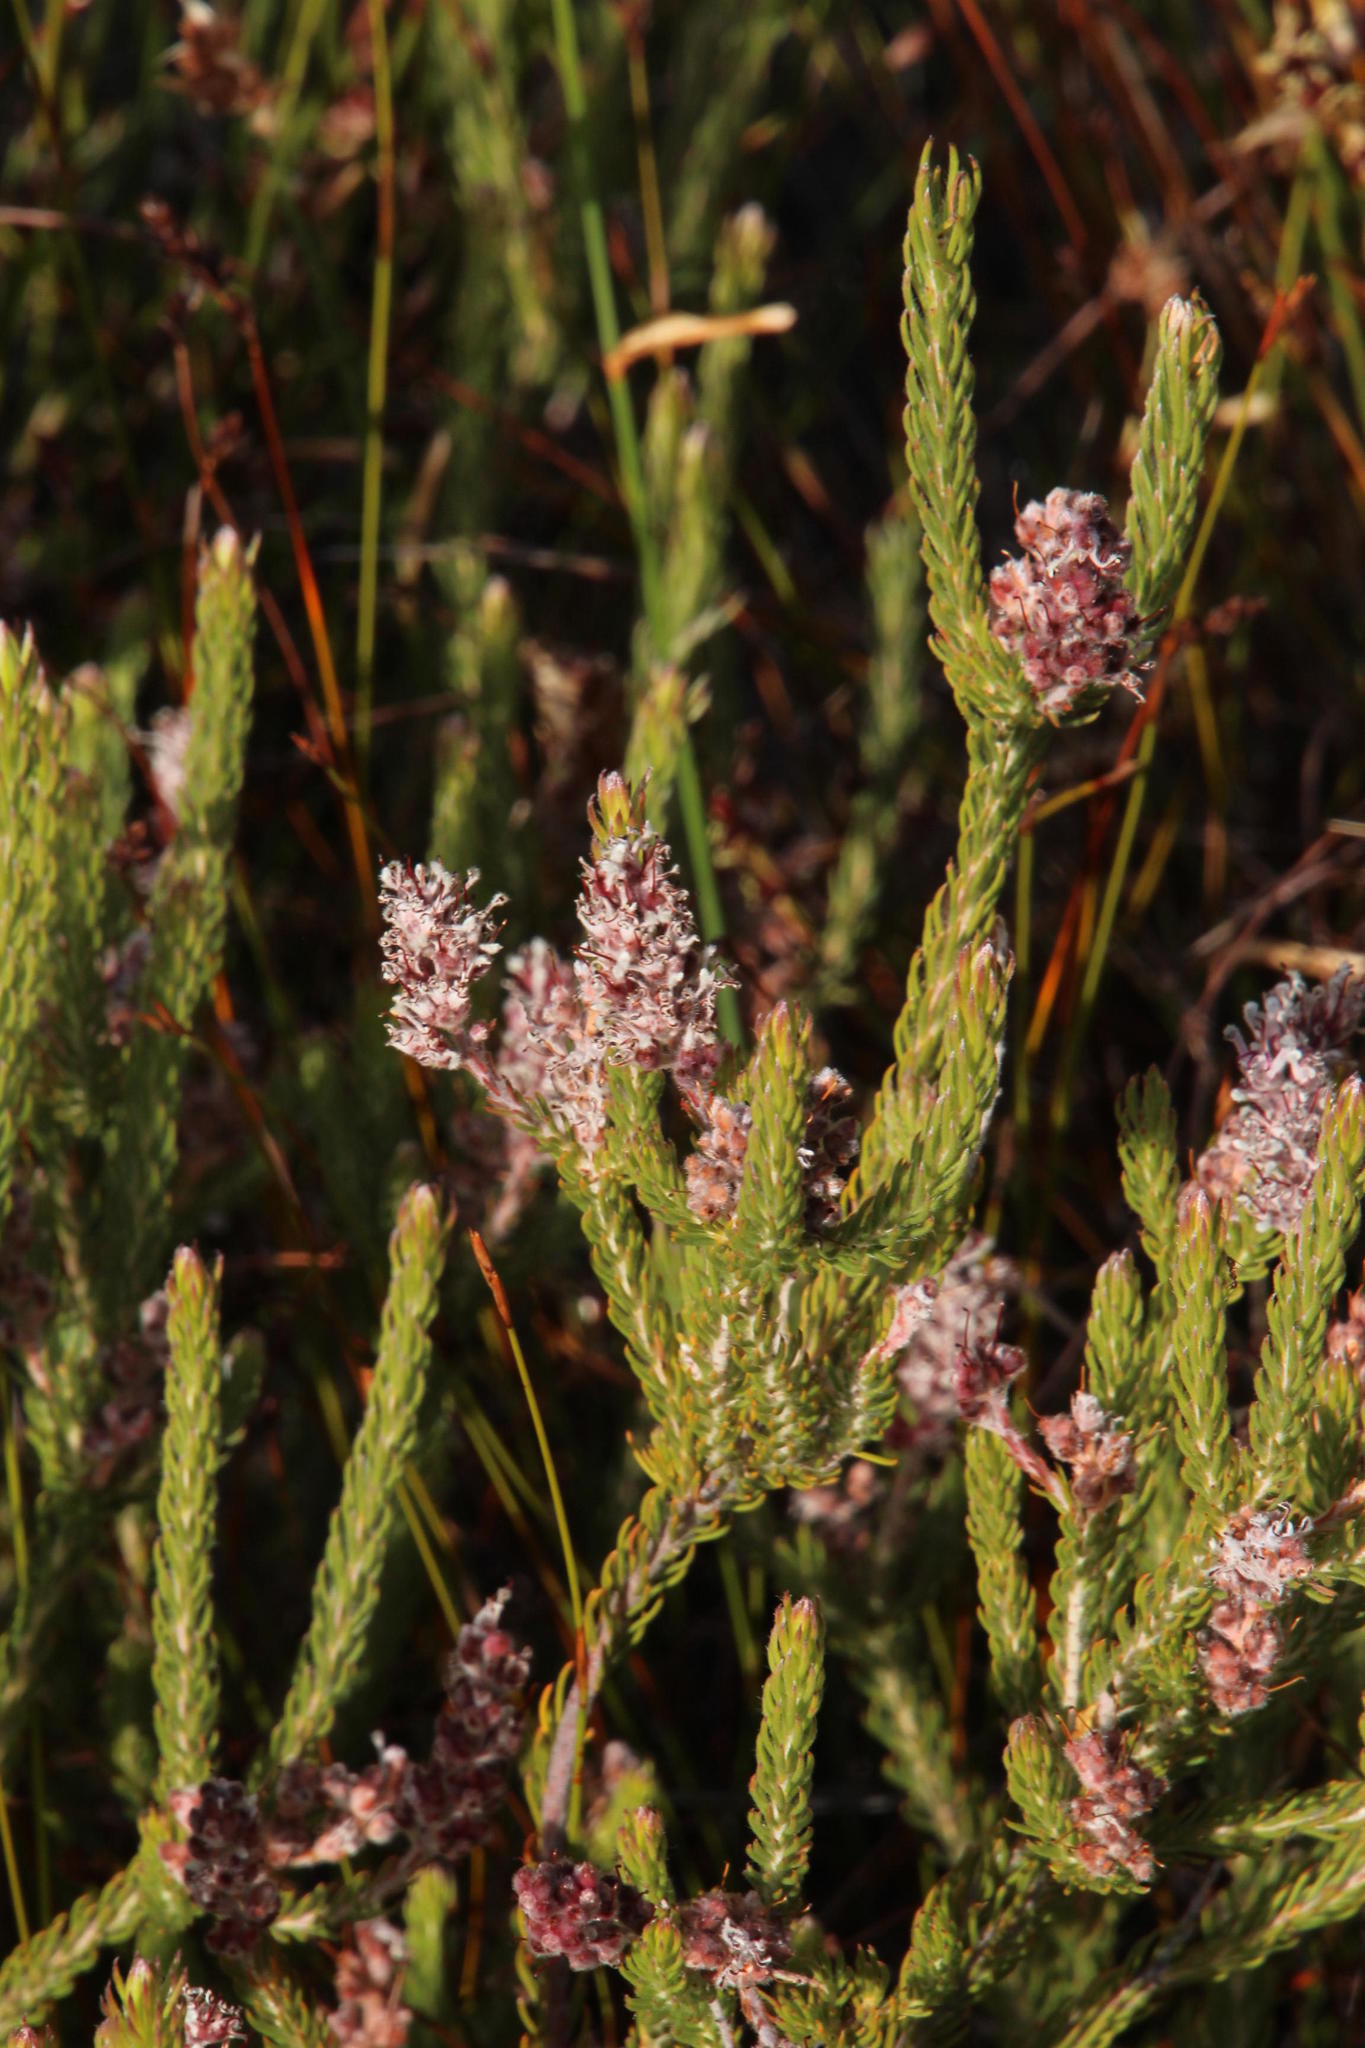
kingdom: Plantae
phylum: Tracheophyta
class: Magnoliopsida
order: Proteales
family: Proteaceae
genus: Spatalla
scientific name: Spatalla incurva
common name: Swan-head spoon
